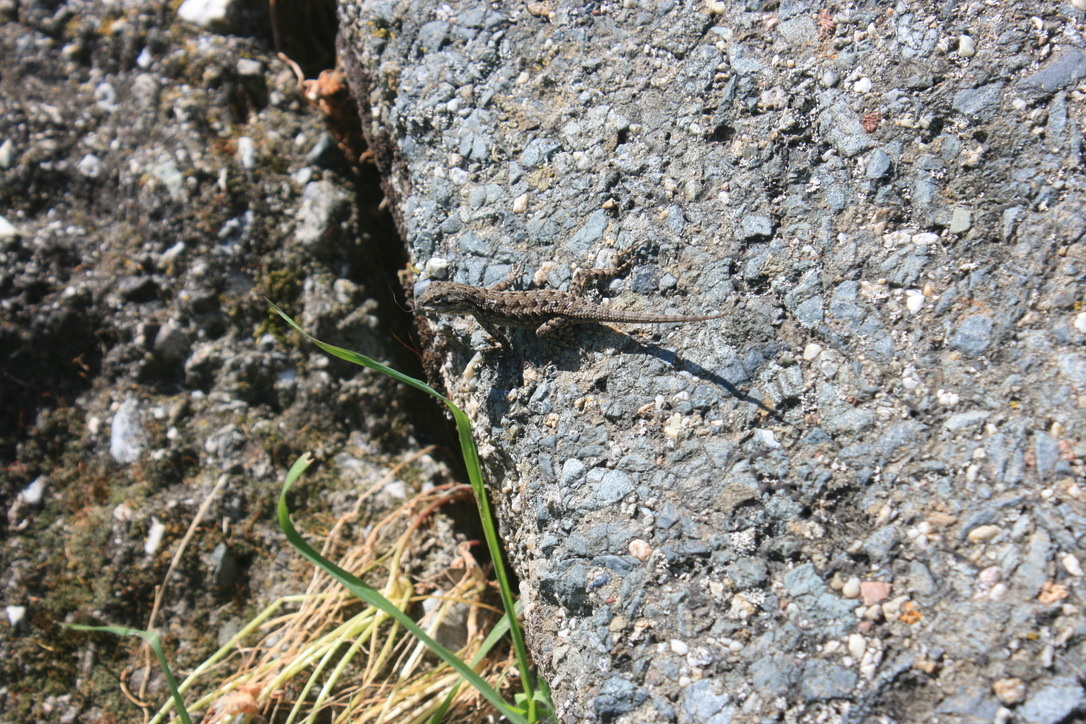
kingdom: Animalia
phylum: Chordata
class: Squamata
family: Phrynosomatidae
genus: Sceloporus
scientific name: Sceloporus occidentalis
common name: Western fence lizard
